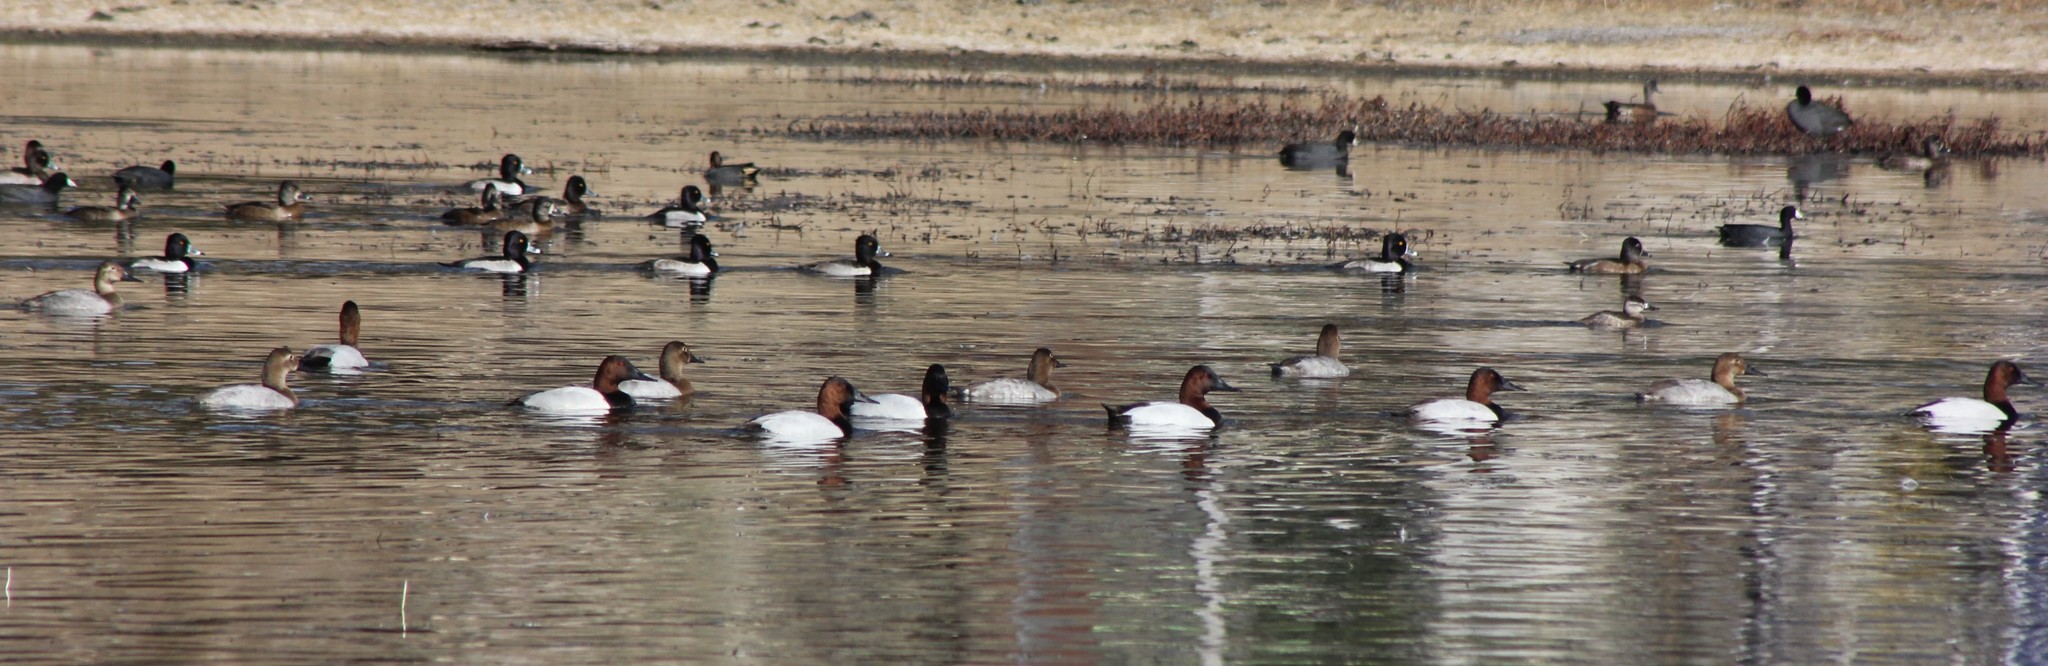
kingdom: Animalia
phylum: Chordata
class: Aves
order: Anseriformes
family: Anatidae
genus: Aythya
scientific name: Aythya valisineria
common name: Canvasback
